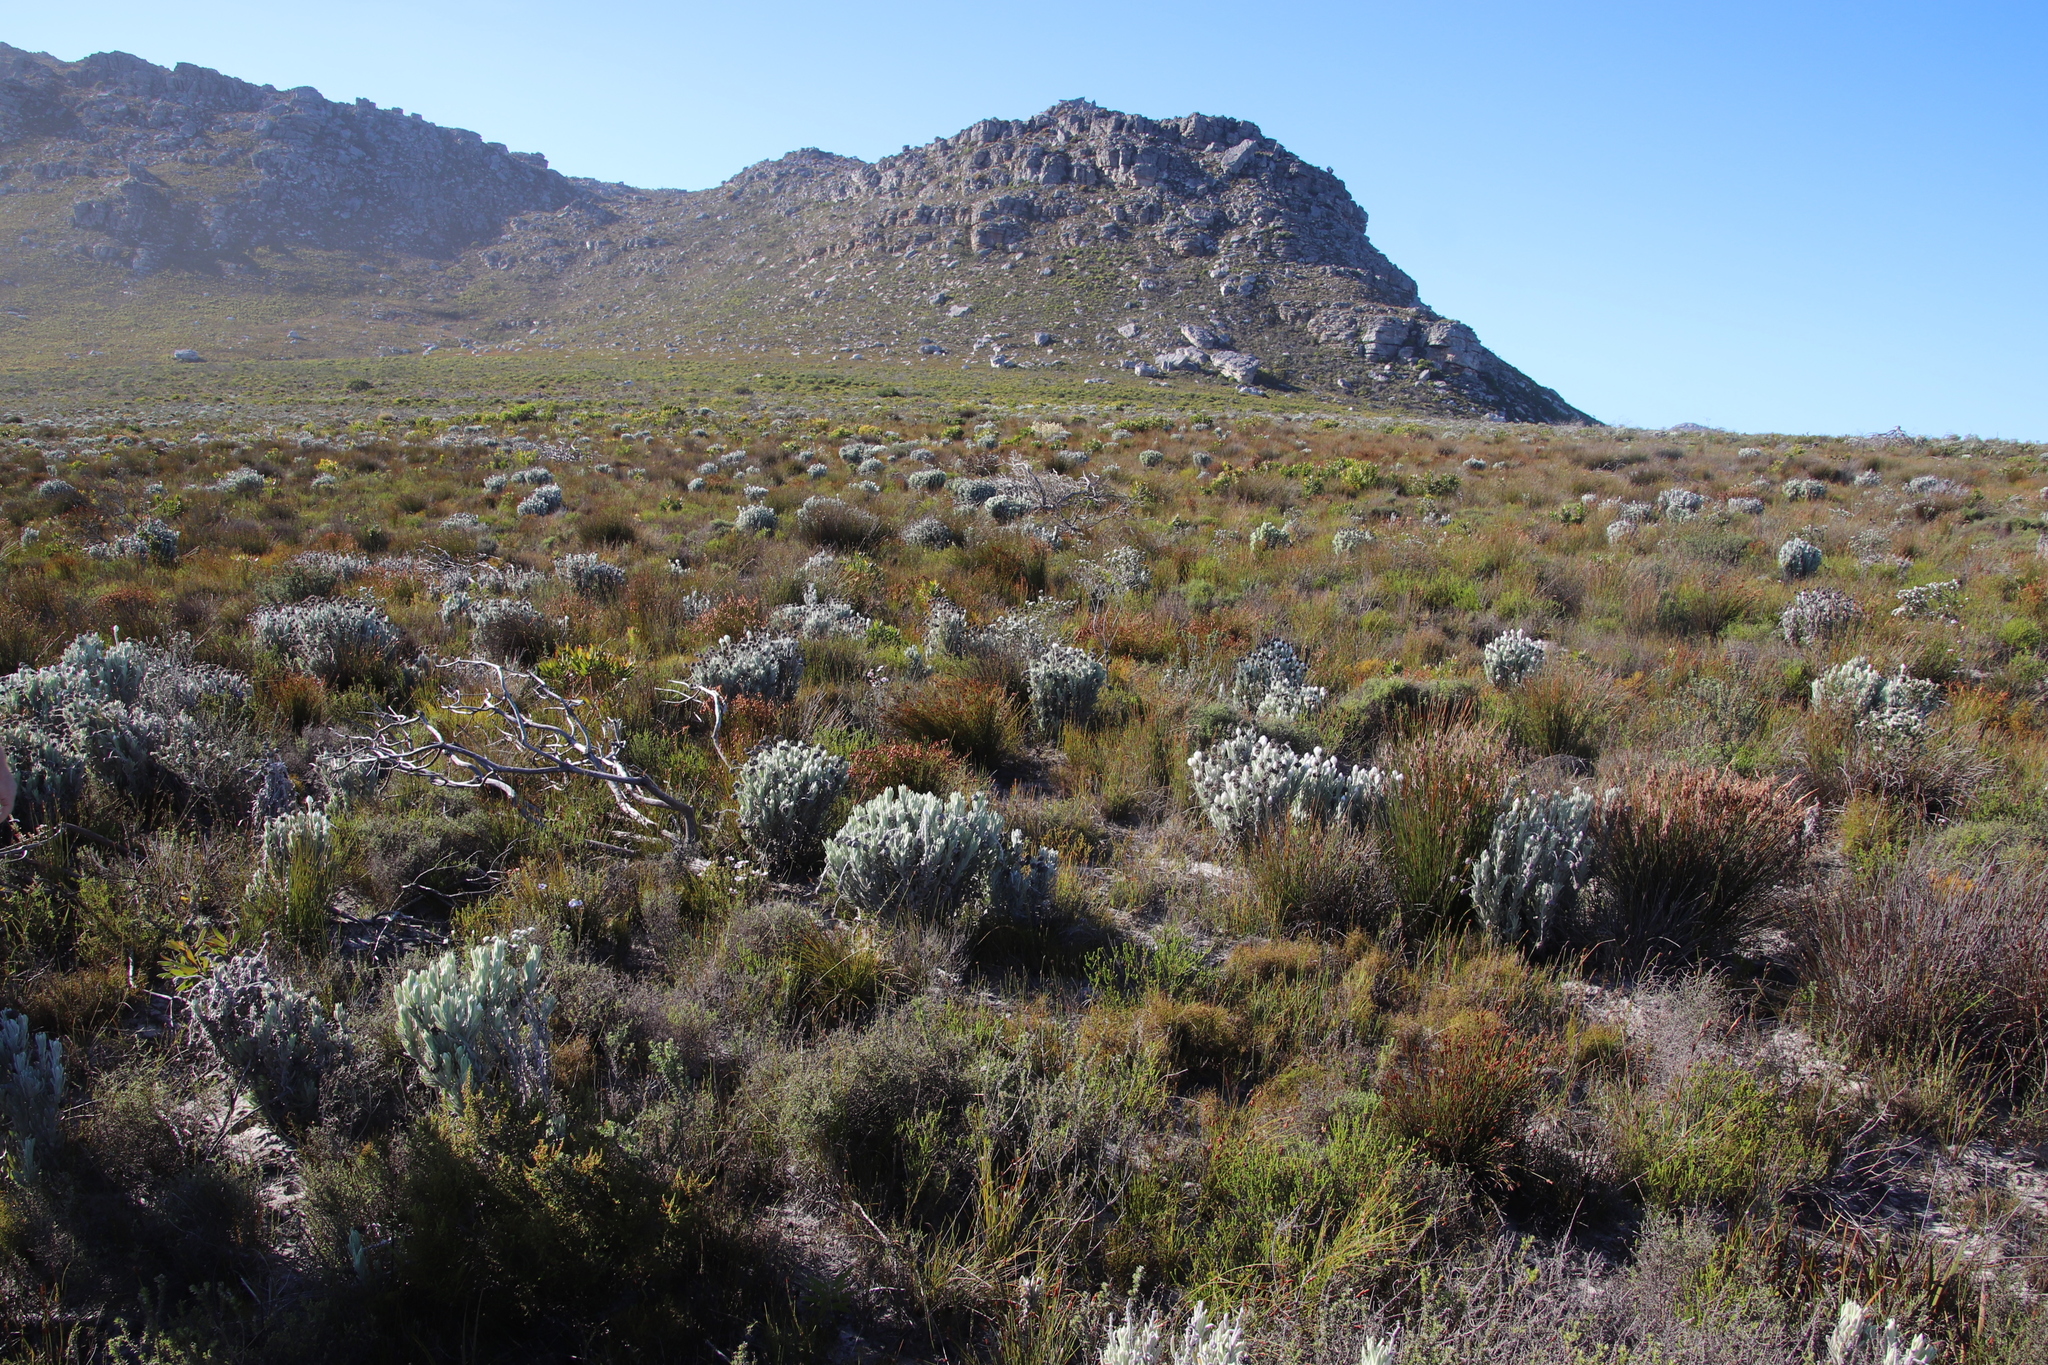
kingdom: Plantae
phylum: Tracheophyta
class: Magnoliopsida
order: Asterales
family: Asteraceae
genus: Syncarpha
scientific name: Syncarpha vestita
